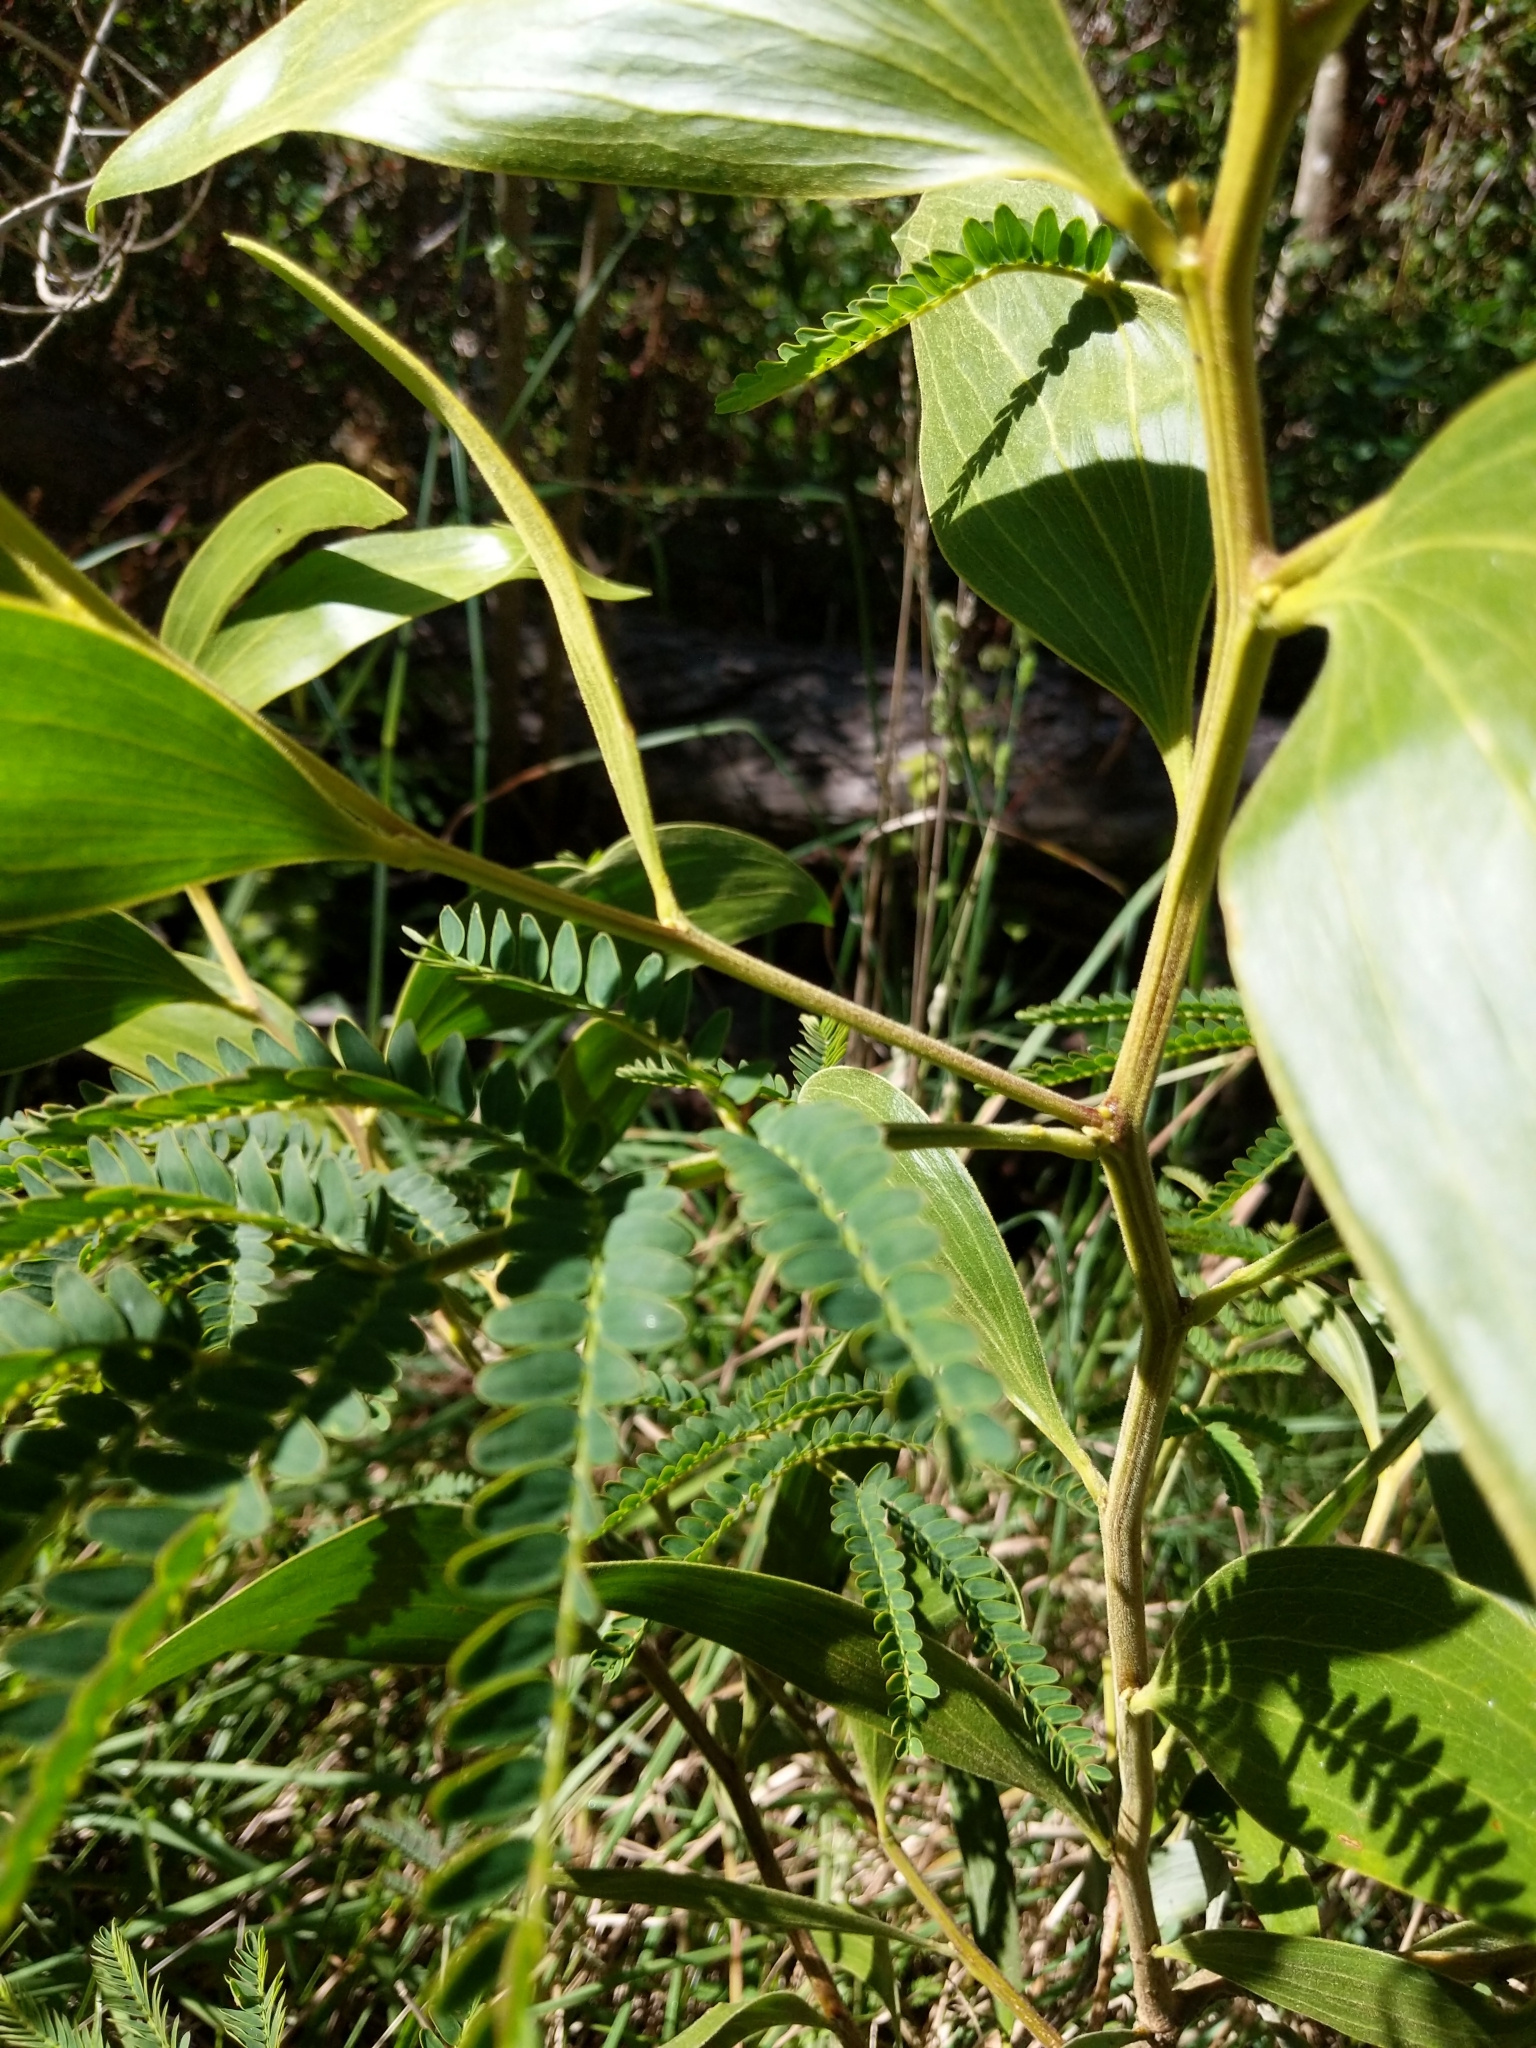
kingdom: Plantae
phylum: Tracheophyta
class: Magnoliopsida
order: Fabales
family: Fabaceae
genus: Acacia
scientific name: Acacia koa
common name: Gray koa
